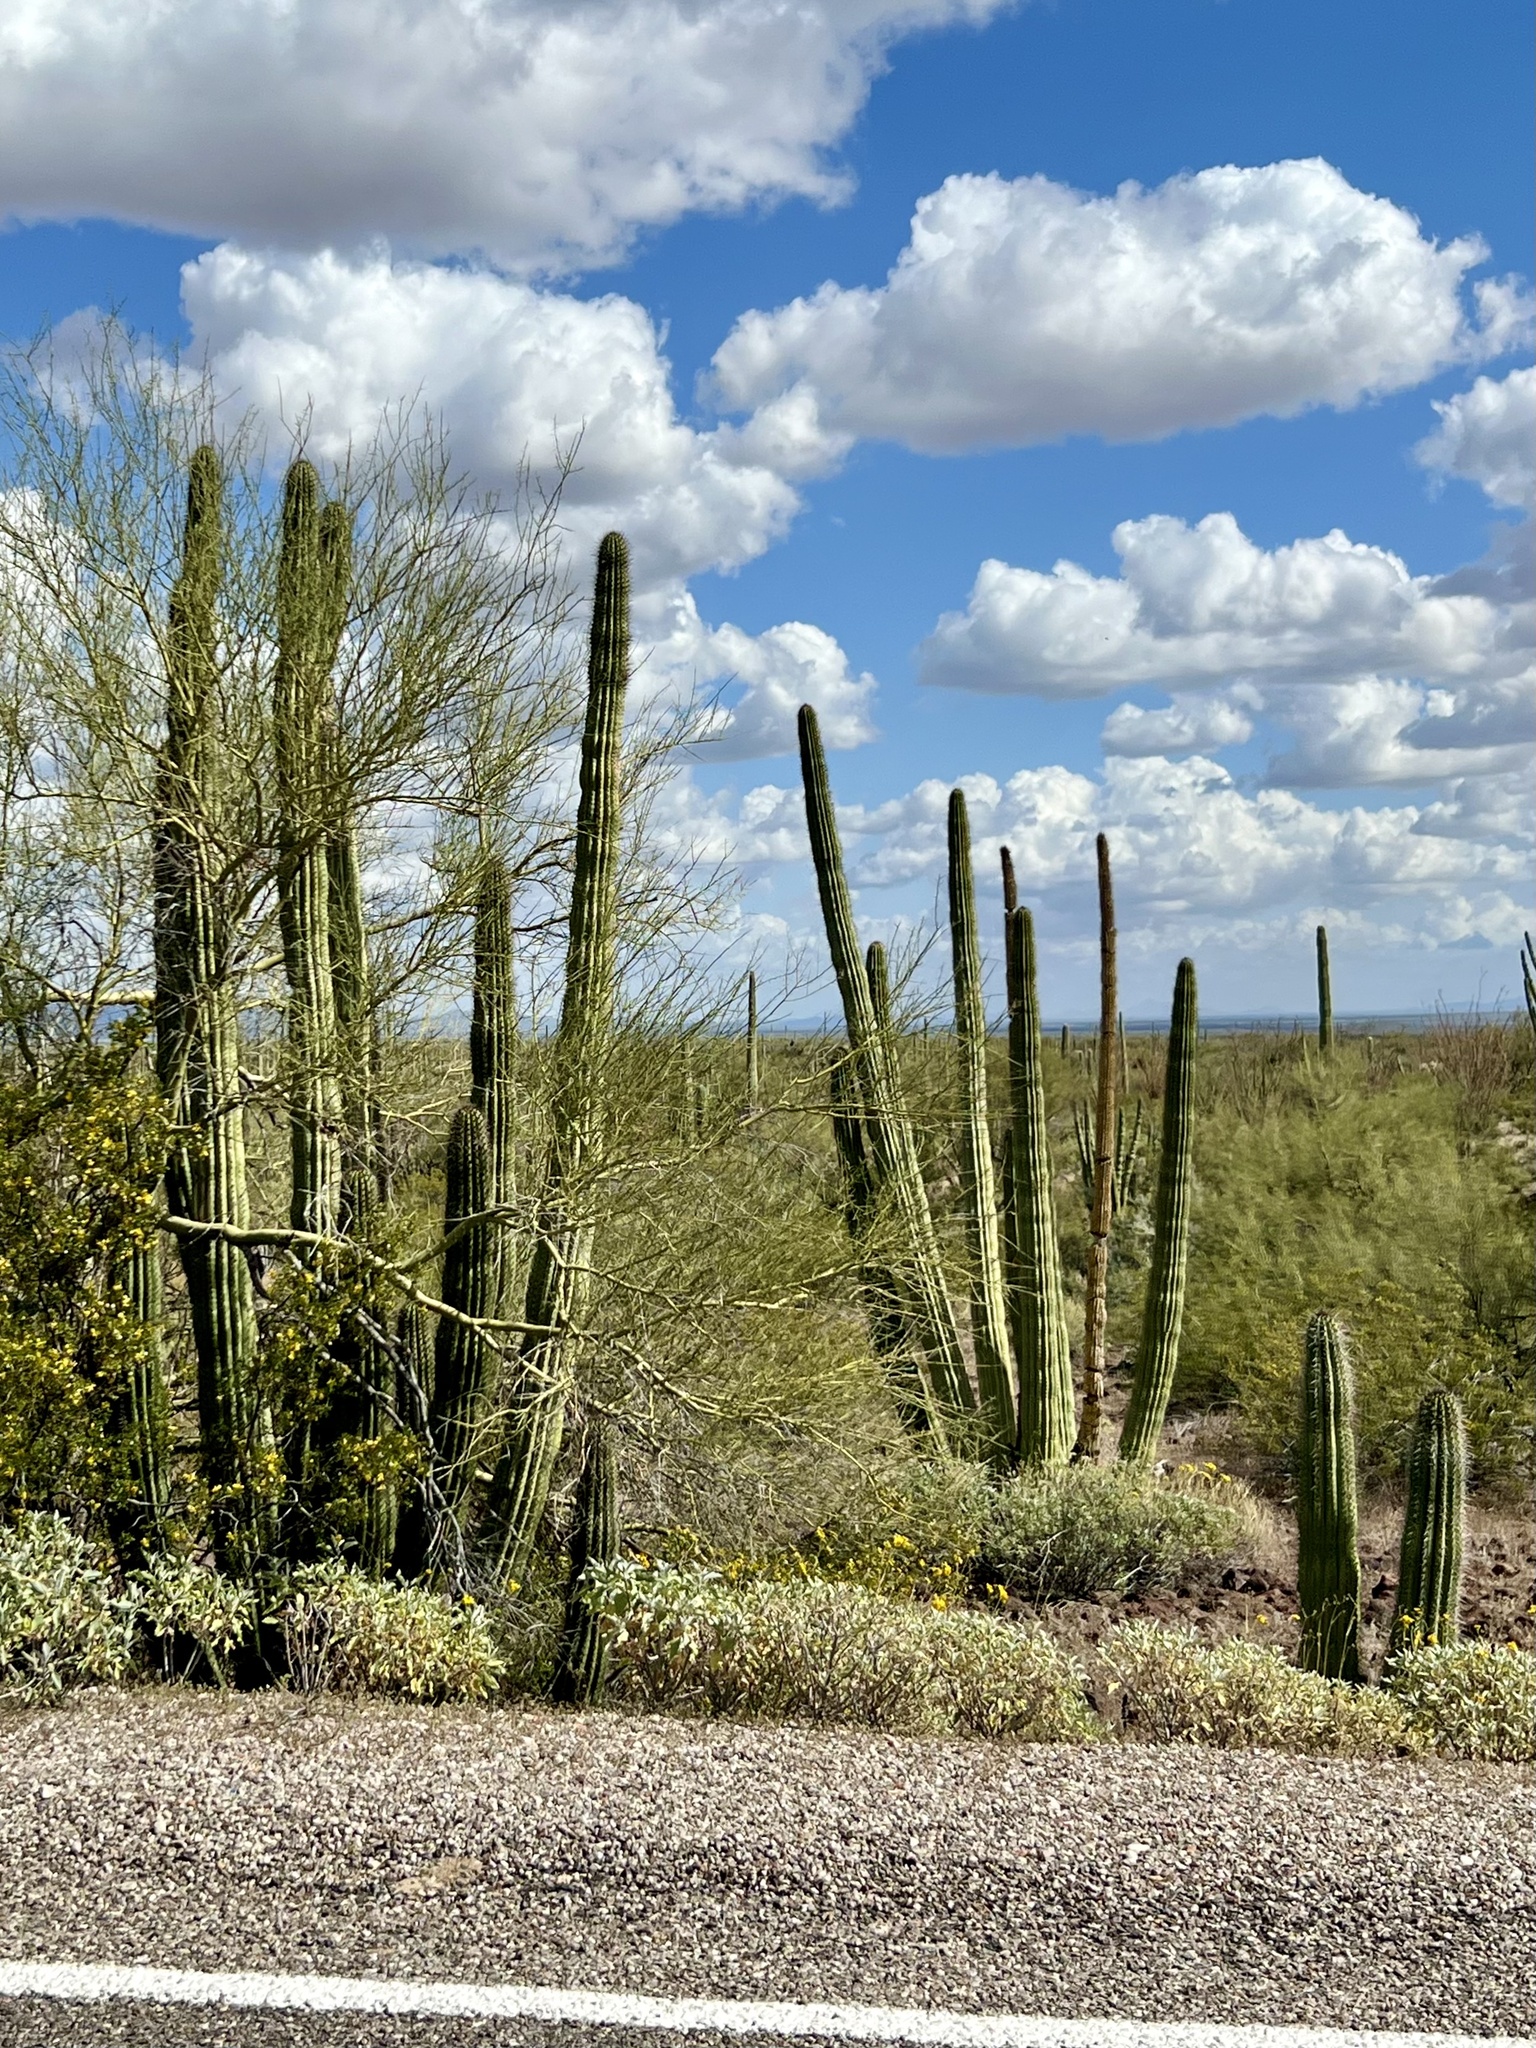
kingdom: Plantae
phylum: Tracheophyta
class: Magnoliopsida
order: Caryophyllales
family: Cactaceae
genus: Stenocereus
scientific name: Stenocereus thurberi
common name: Organ pipe cactus
